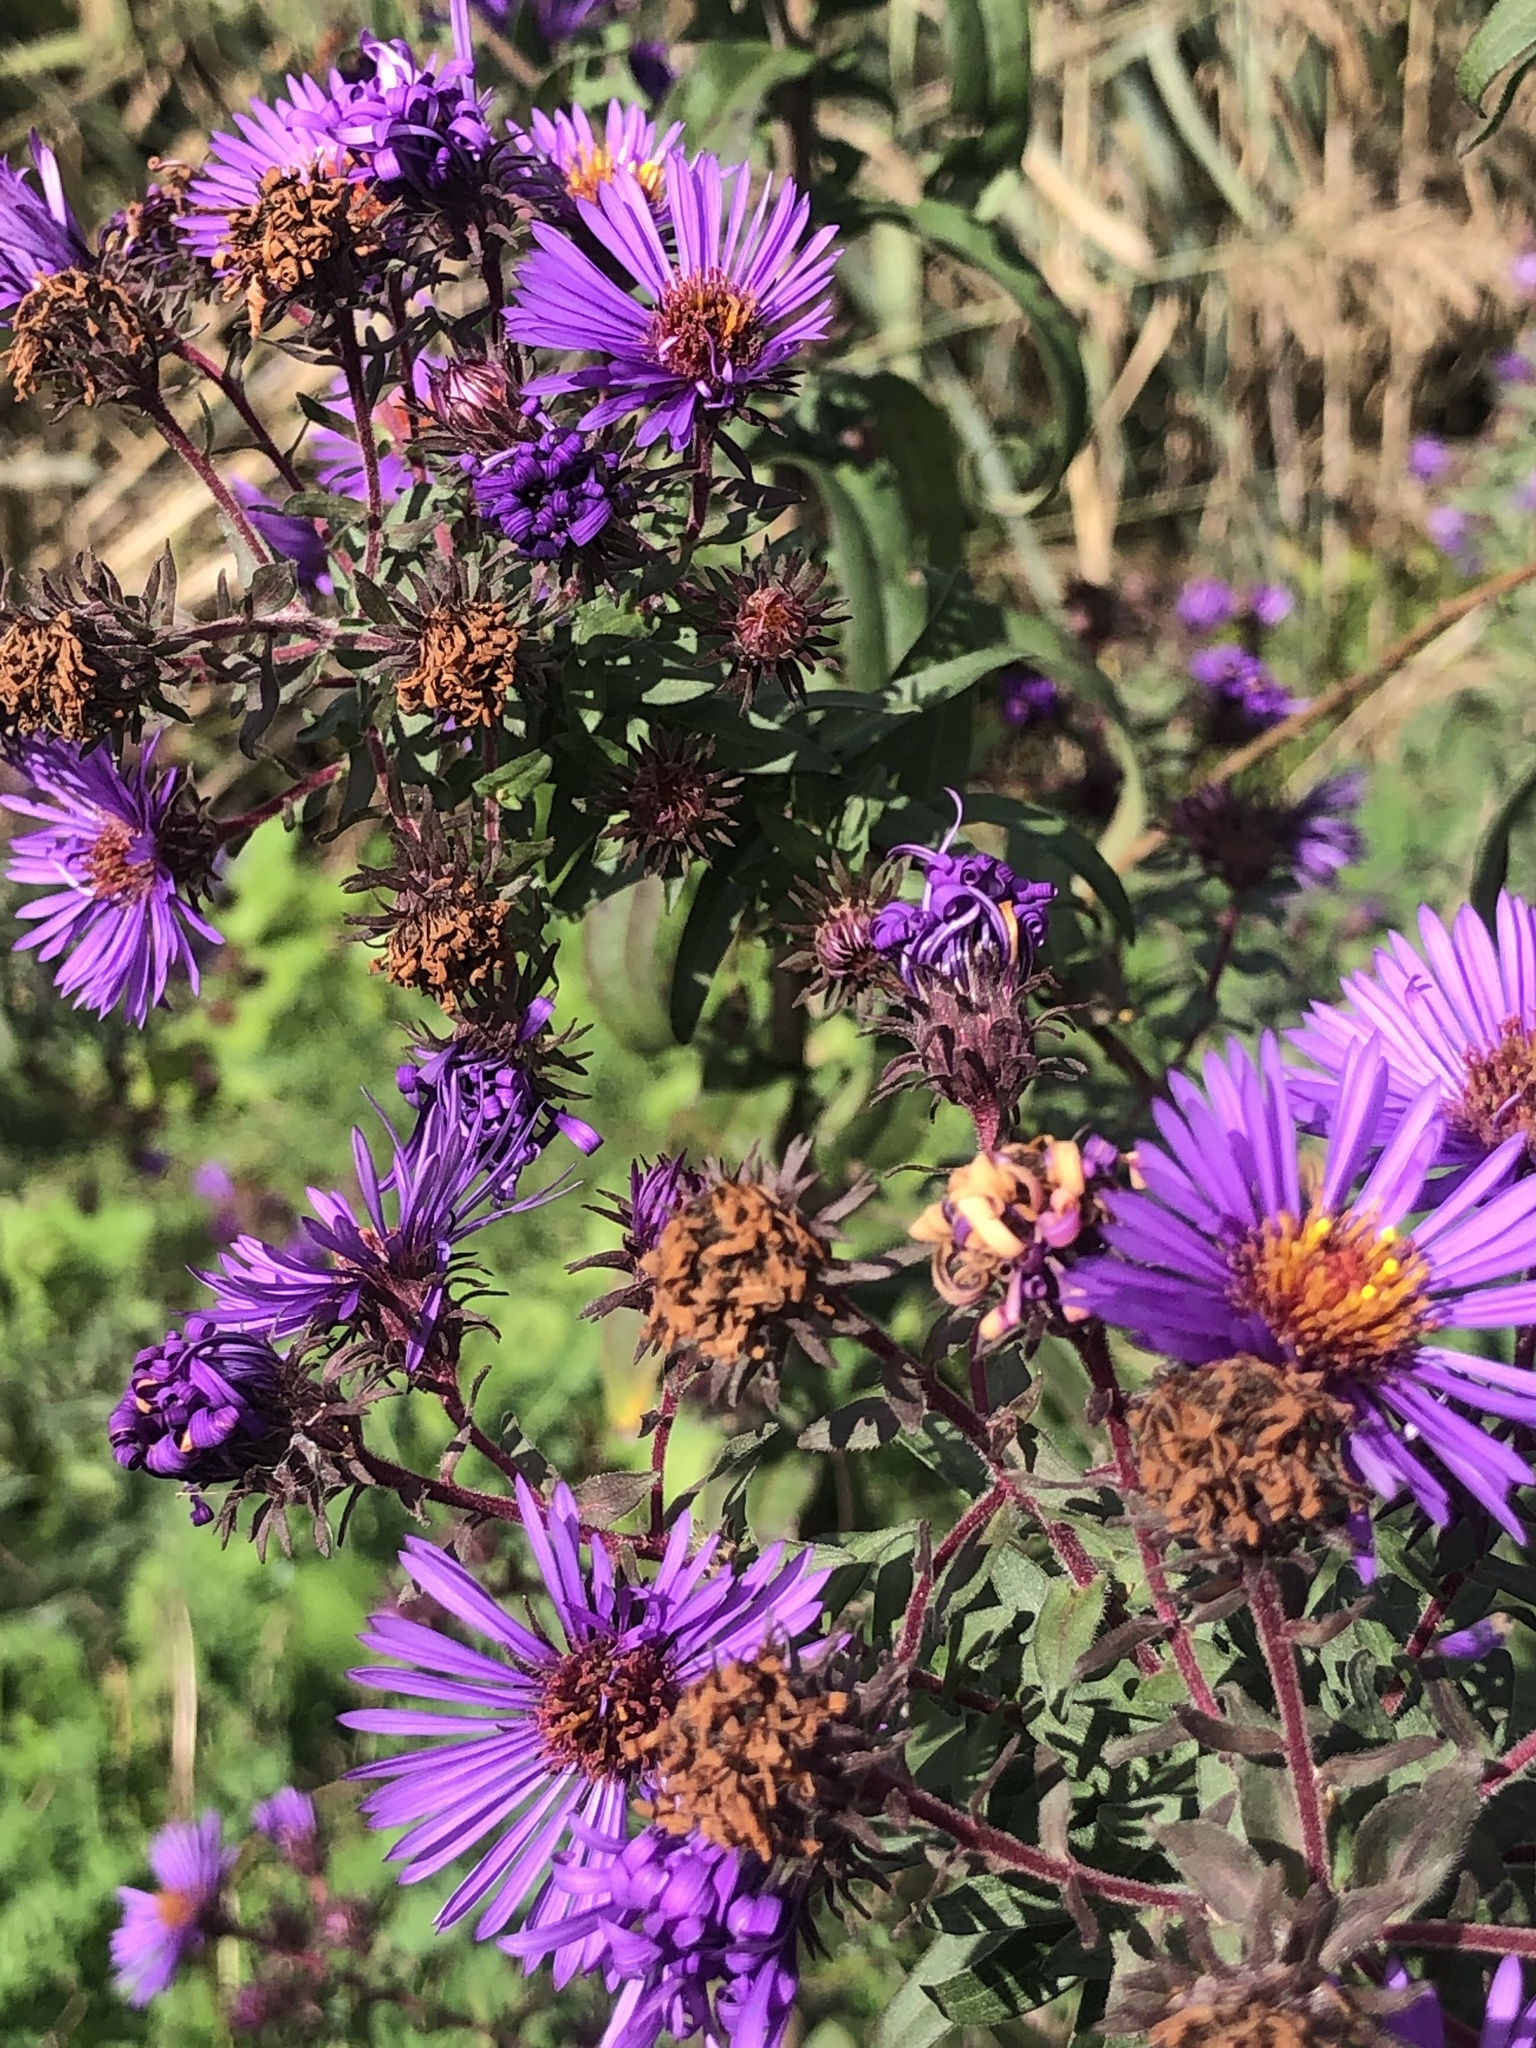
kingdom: Plantae
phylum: Tracheophyta
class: Magnoliopsida
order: Asterales
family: Asteraceae
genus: Symphyotrichum
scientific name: Symphyotrichum novae-angliae
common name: Michaelmas daisy
